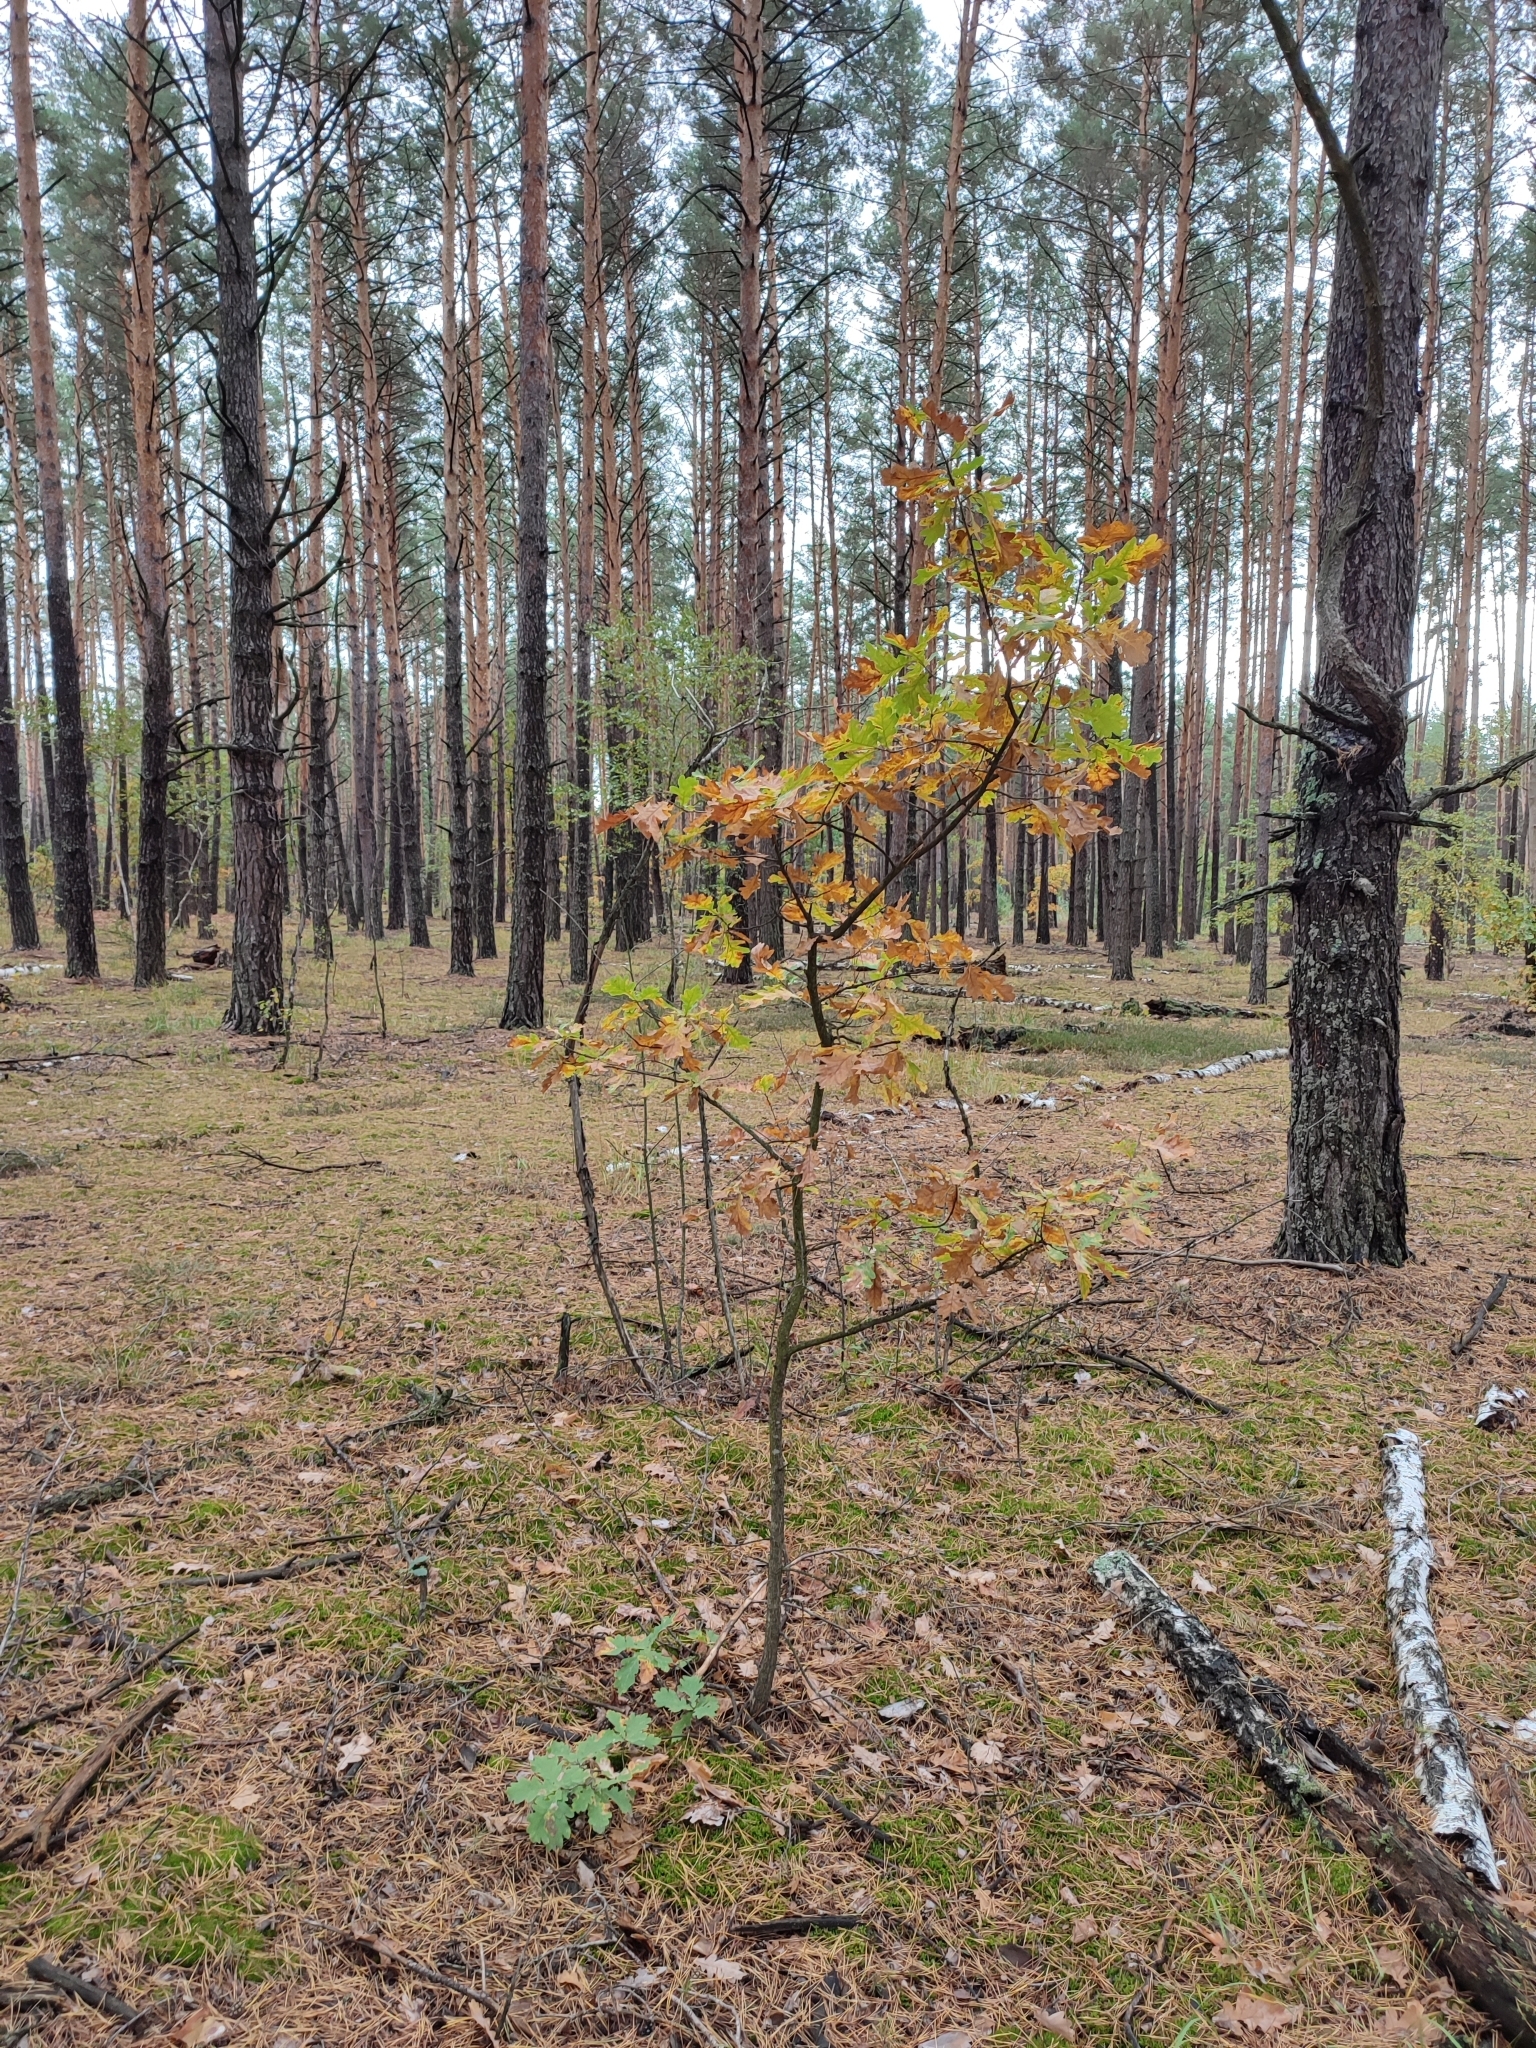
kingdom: Plantae
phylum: Tracheophyta
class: Magnoliopsida
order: Fagales
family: Fagaceae
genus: Quercus
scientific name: Quercus robur
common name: Pedunculate oak
